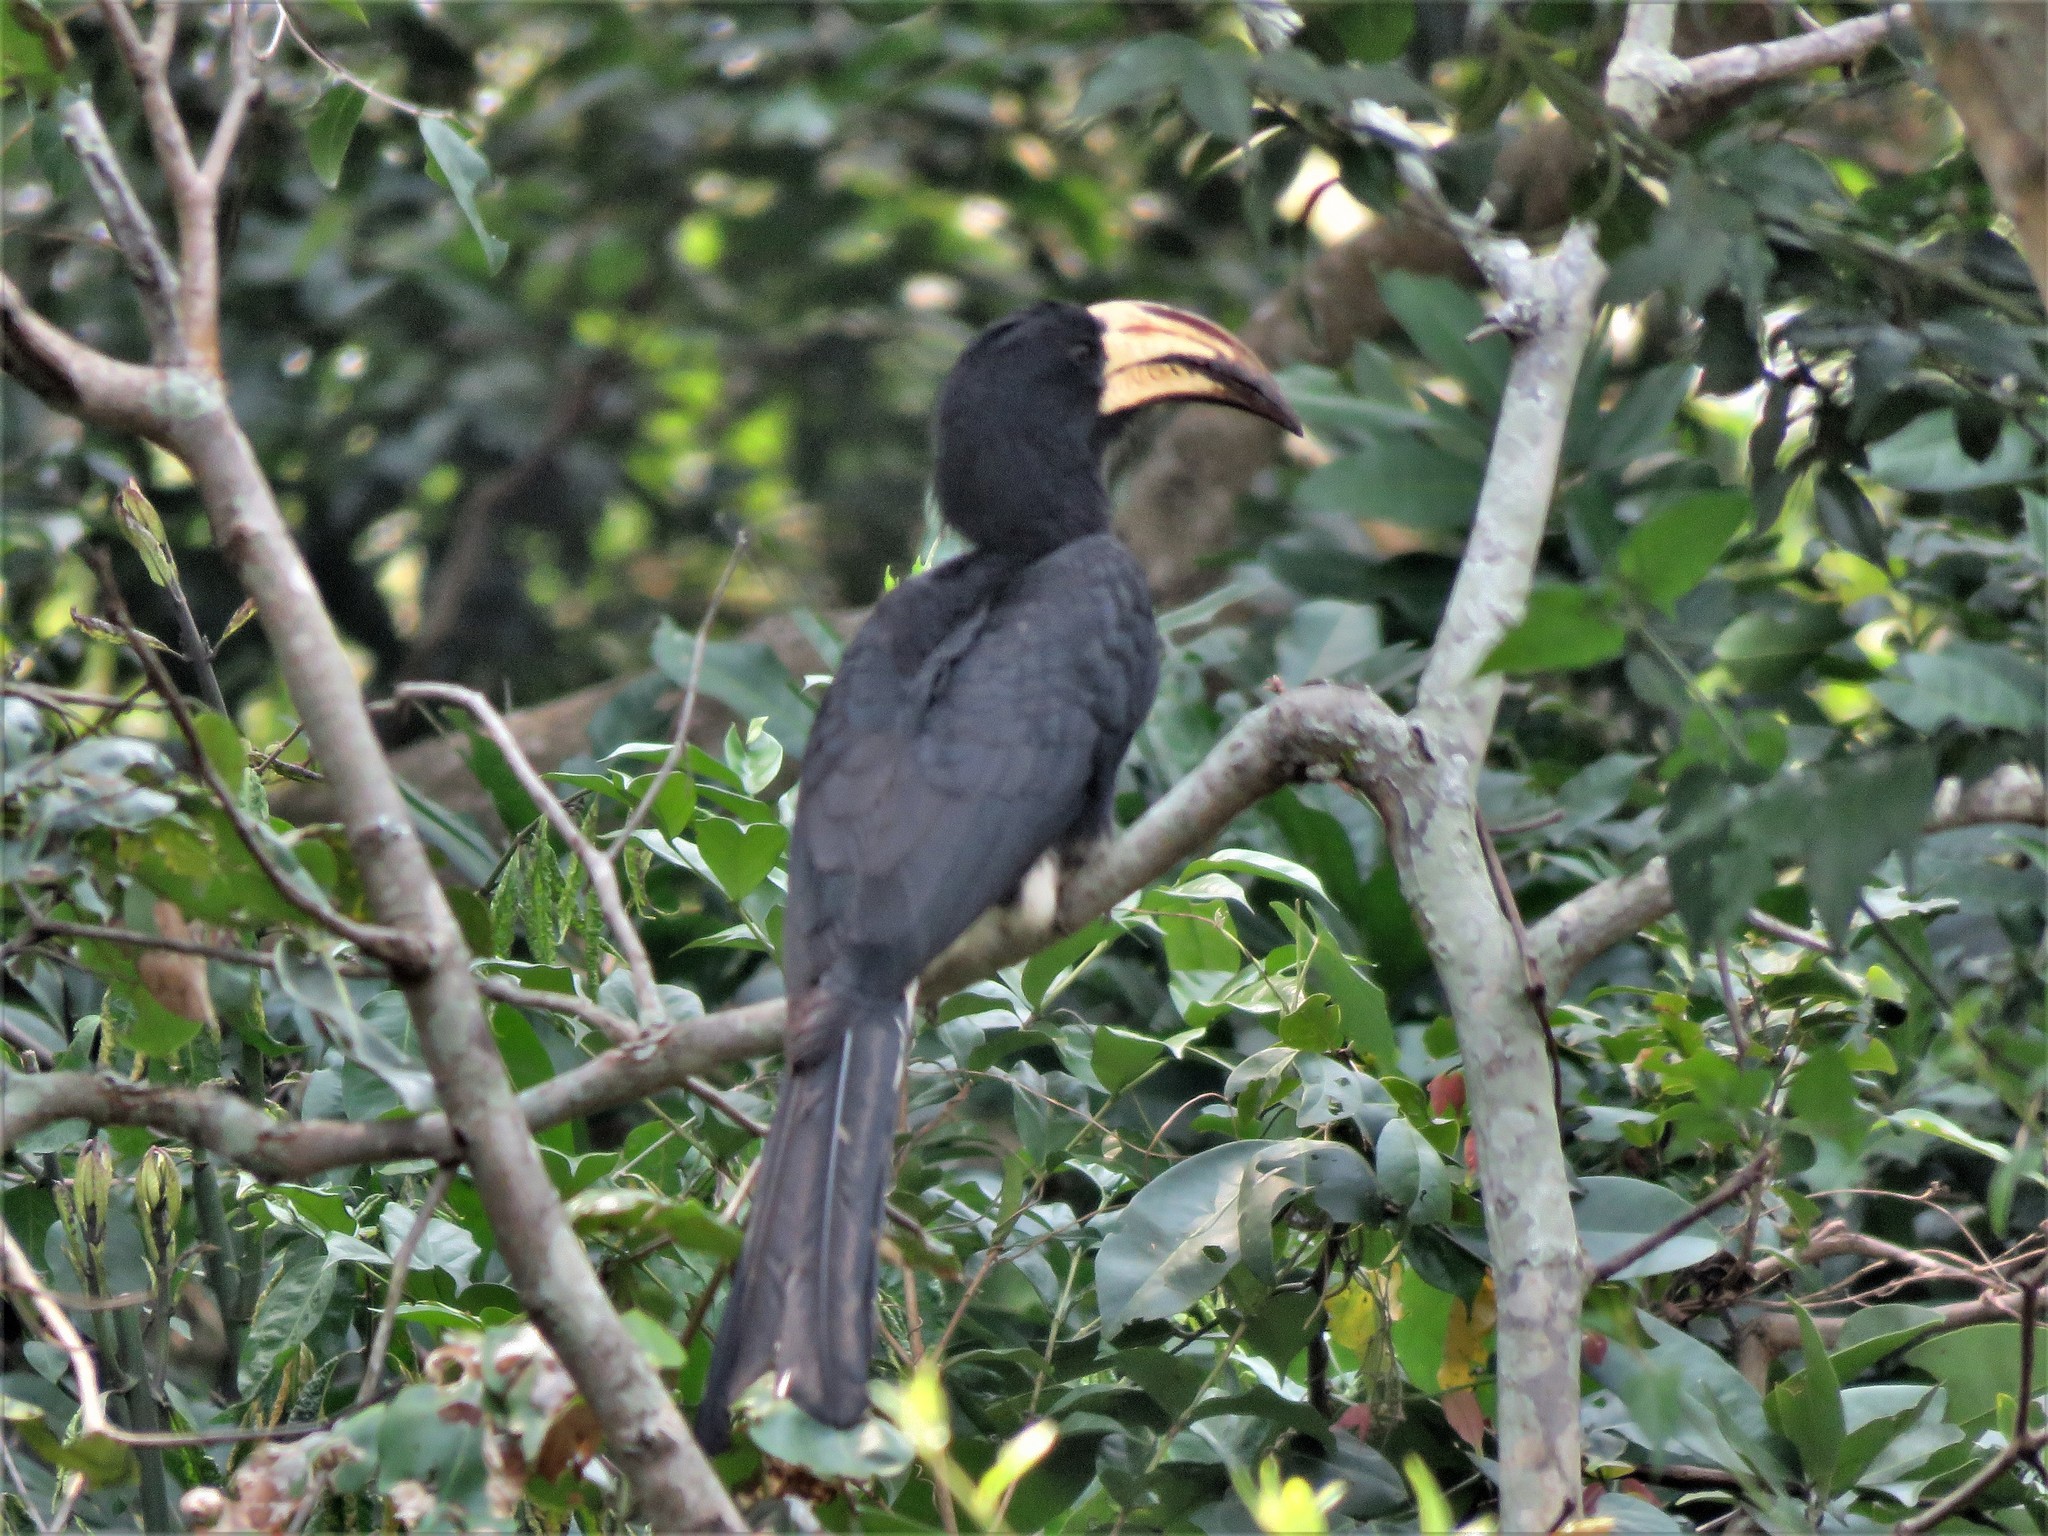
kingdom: Animalia
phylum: Chordata
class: Aves
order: Bucerotiformes
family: Bucerotidae
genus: Lophoceros
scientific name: Lophoceros fasciatus
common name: African pied hornbill
